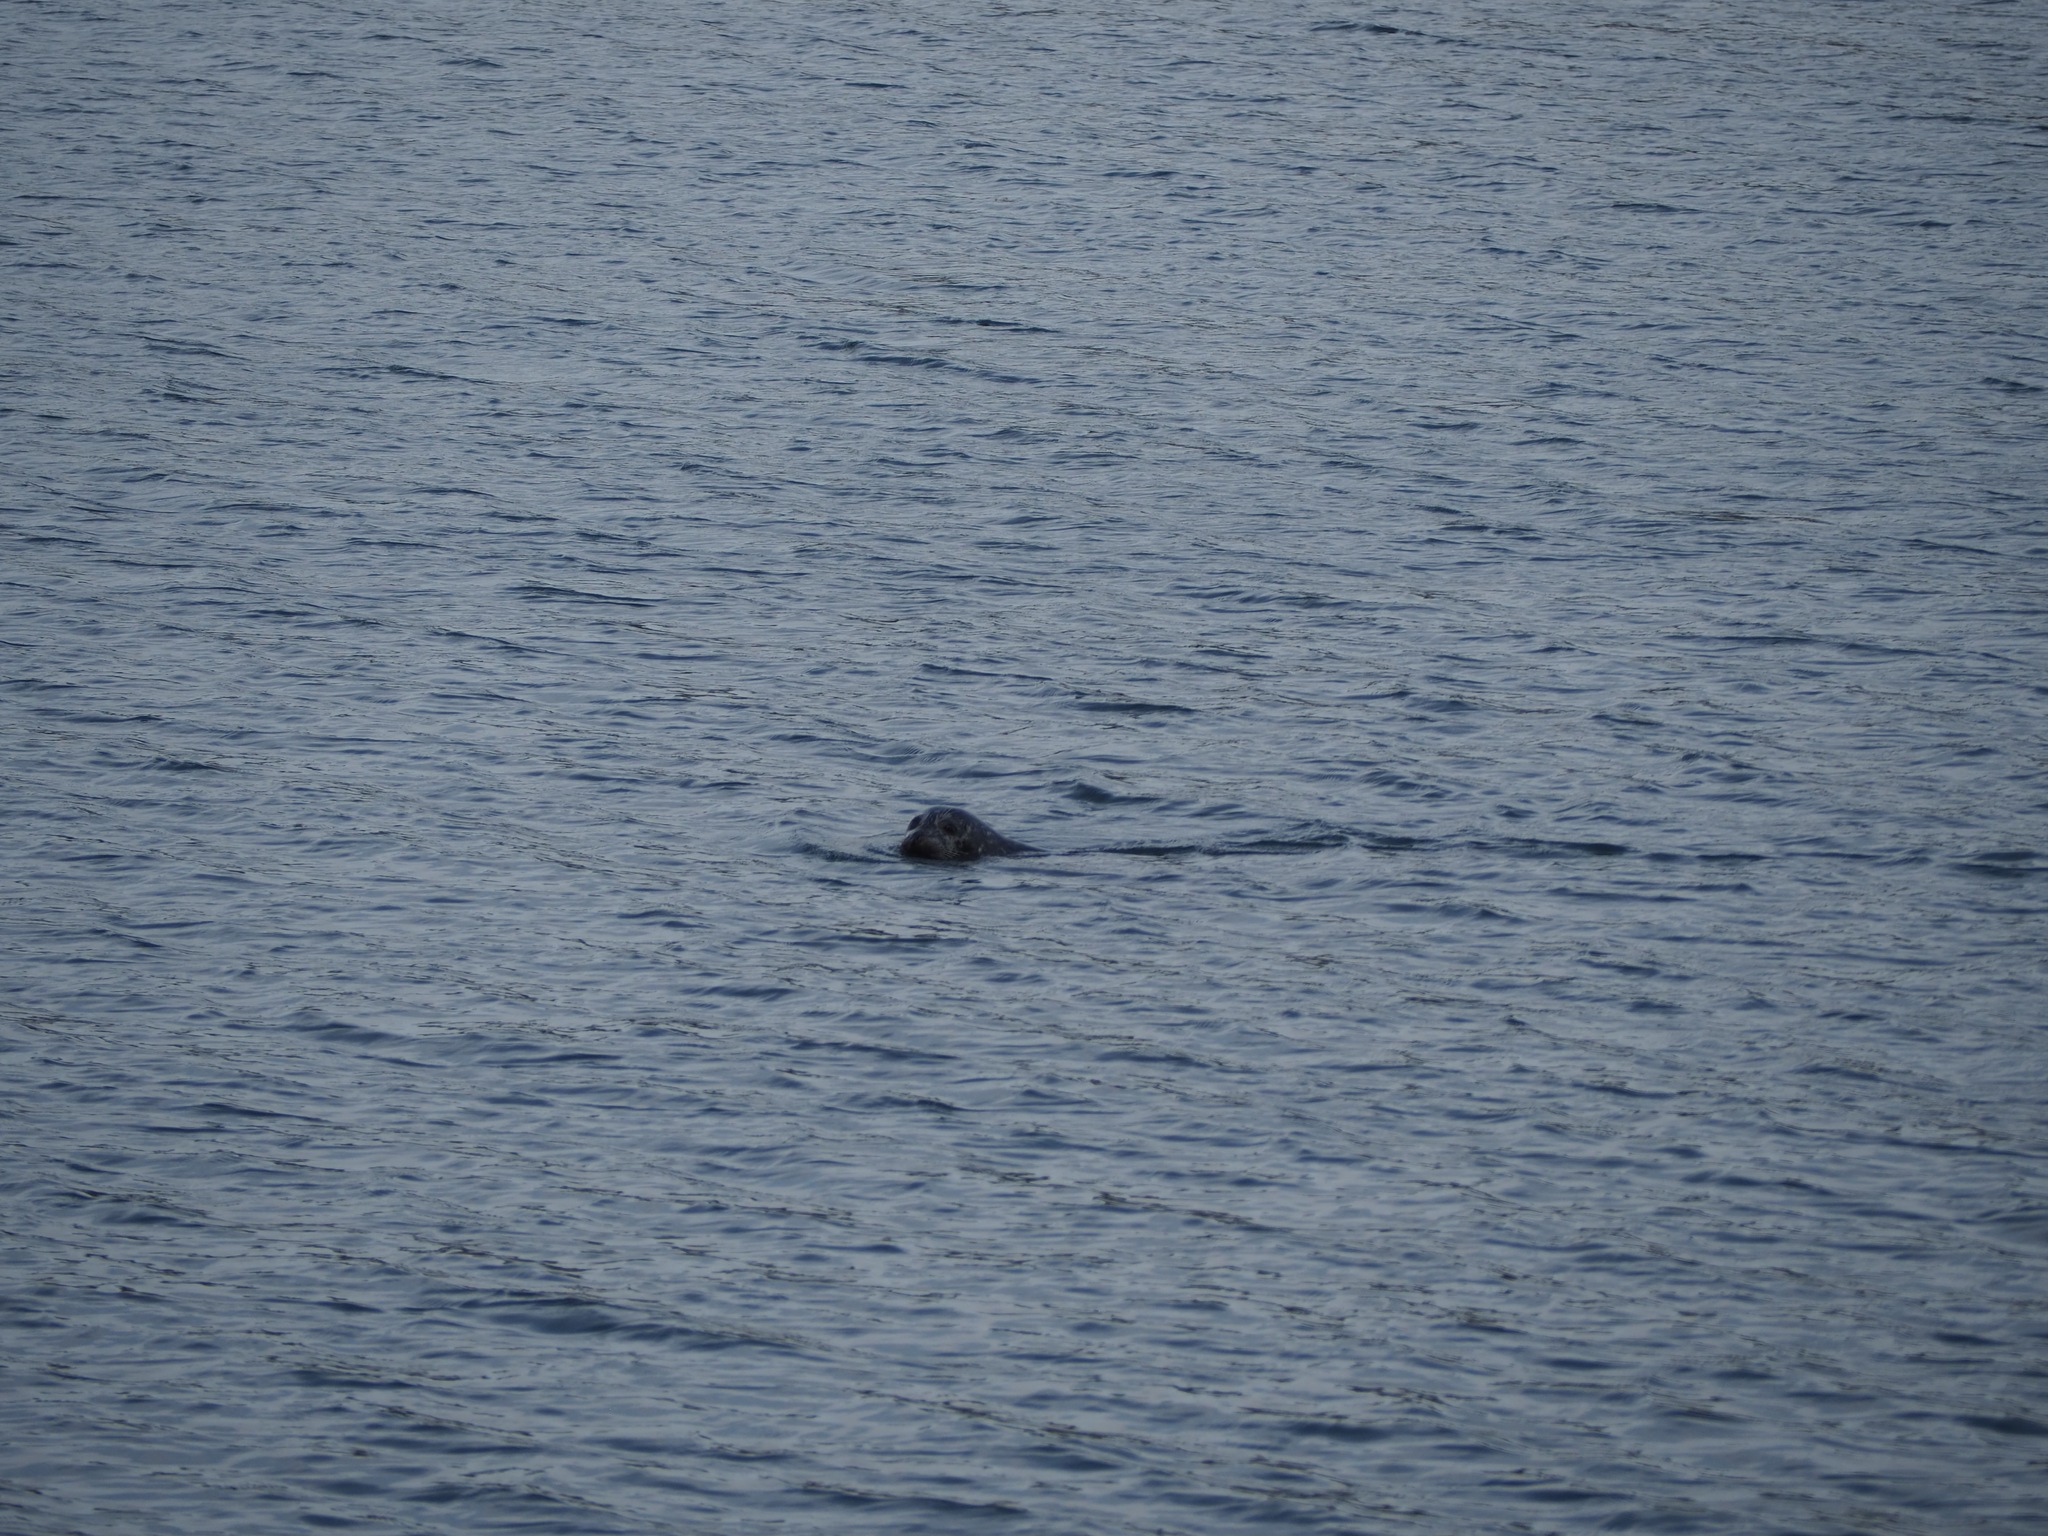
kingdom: Animalia
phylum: Chordata
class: Mammalia
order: Carnivora
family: Phocidae
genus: Phoca
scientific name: Phoca vitulina
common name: Harbor seal
